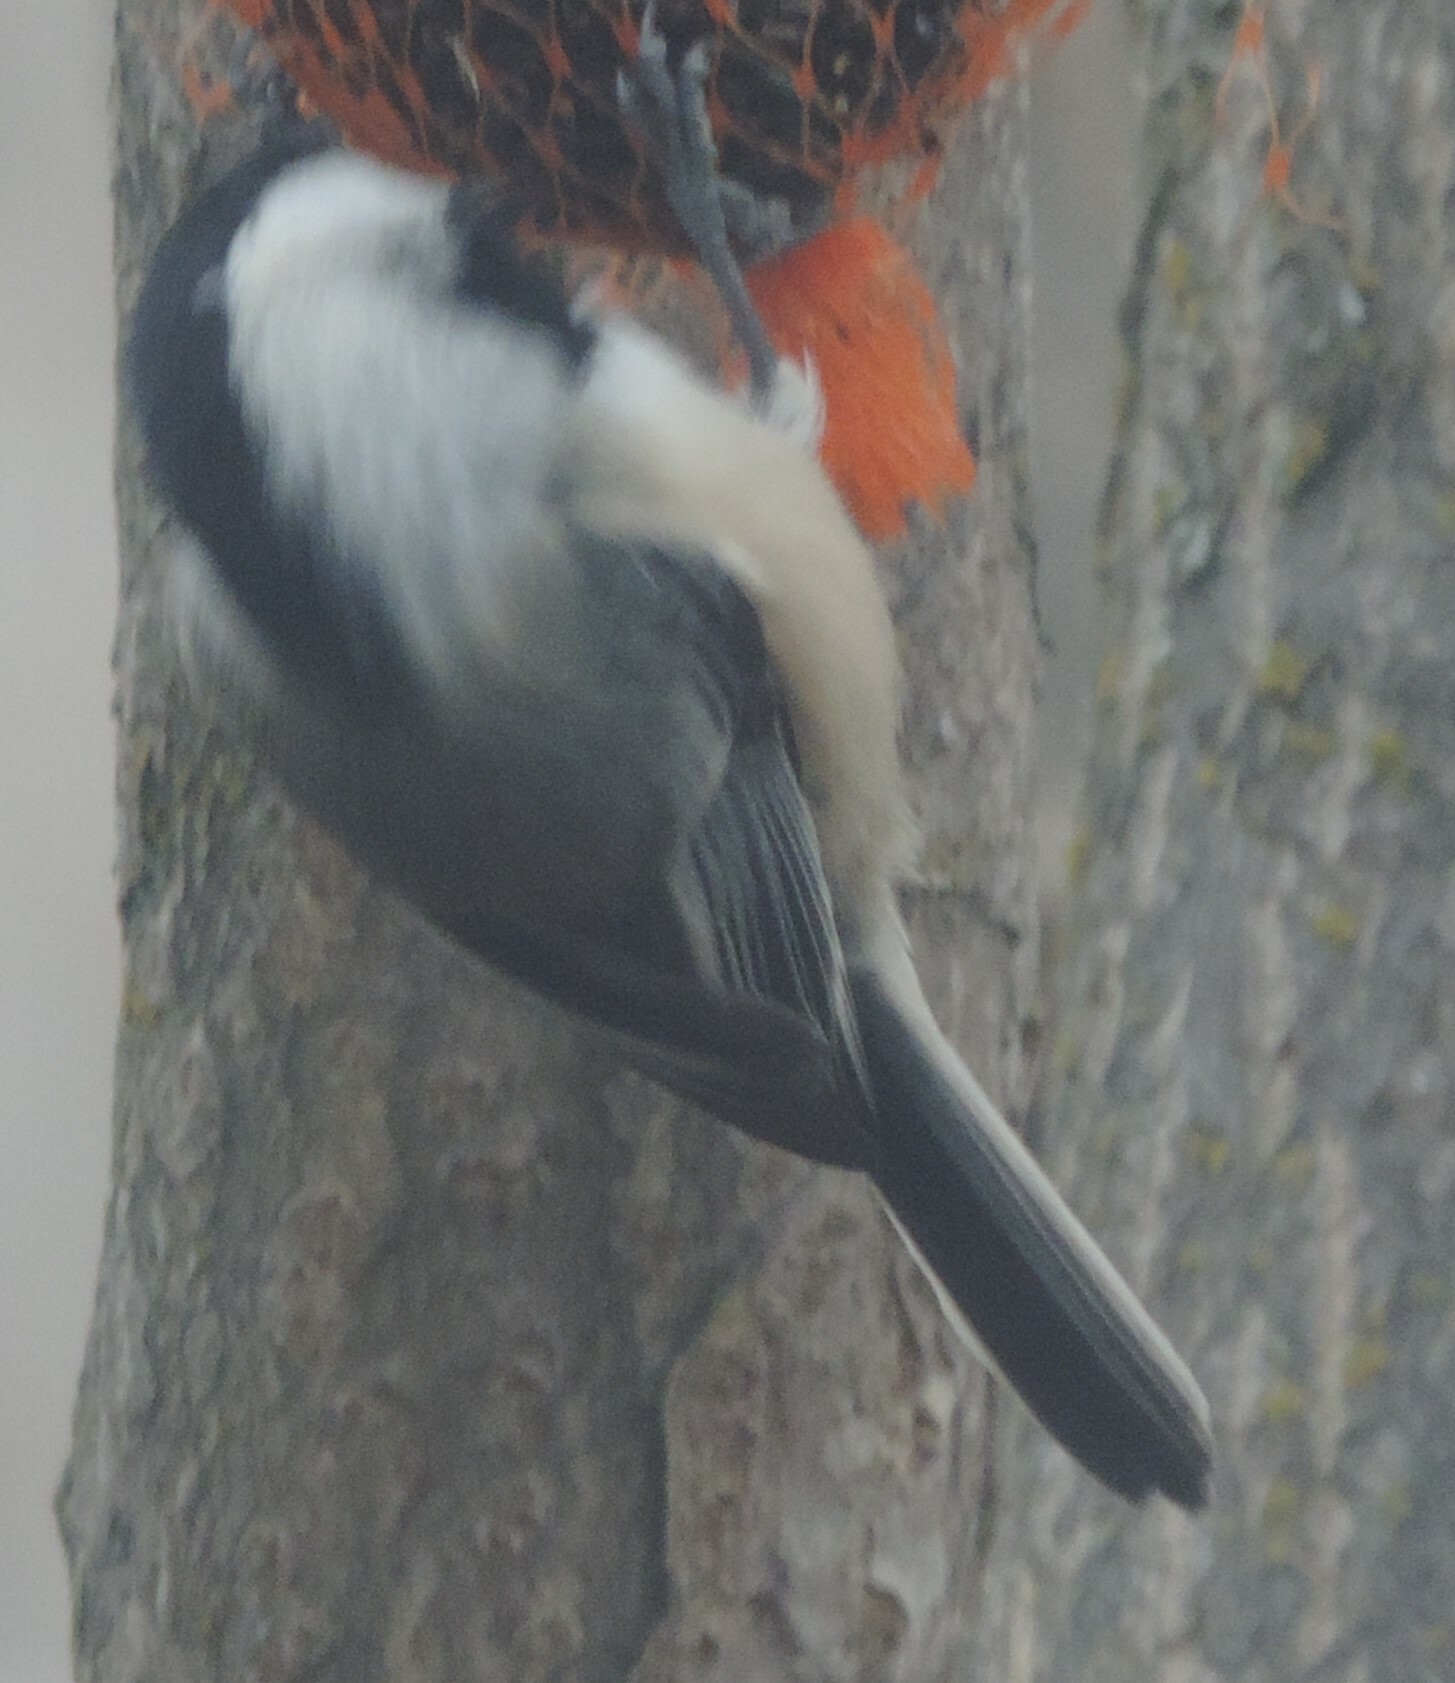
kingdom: Animalia
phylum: Chordata
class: Aves
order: Passeriformes
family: Paridae
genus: Poecile
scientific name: Poecile atricapillus
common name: Black-capped chickadee
